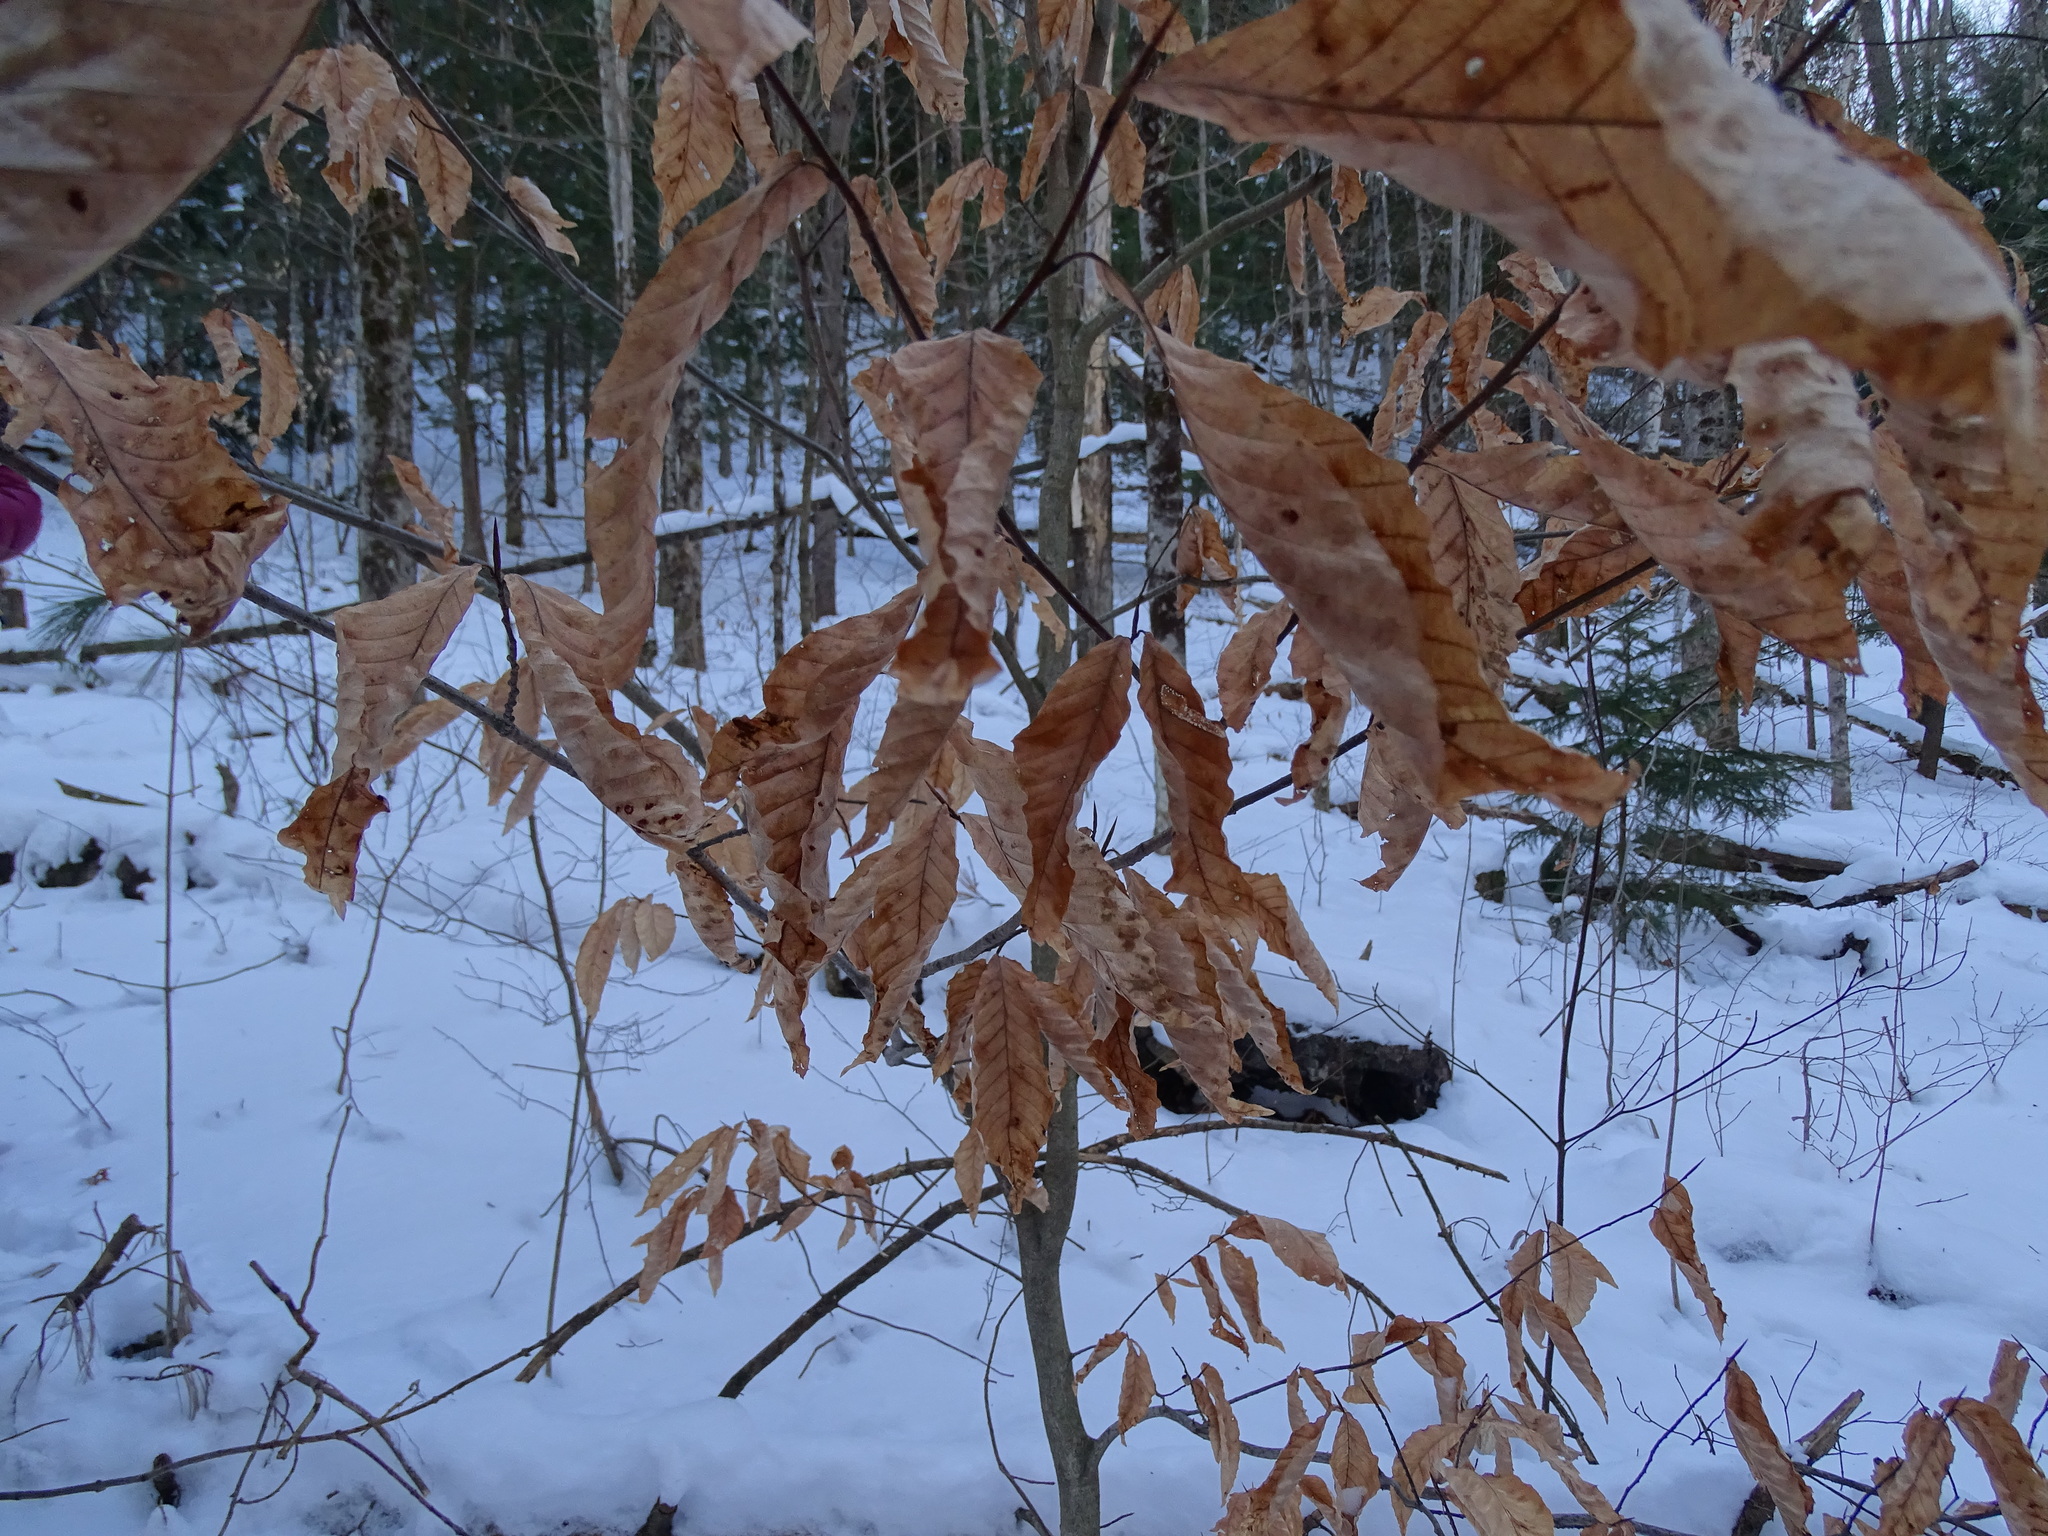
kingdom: Plantae
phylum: Tracheophyta
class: Magnoliopsida
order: Fagales
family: Fagaceae
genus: Fagus
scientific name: Fagus grandifolia
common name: American beech
